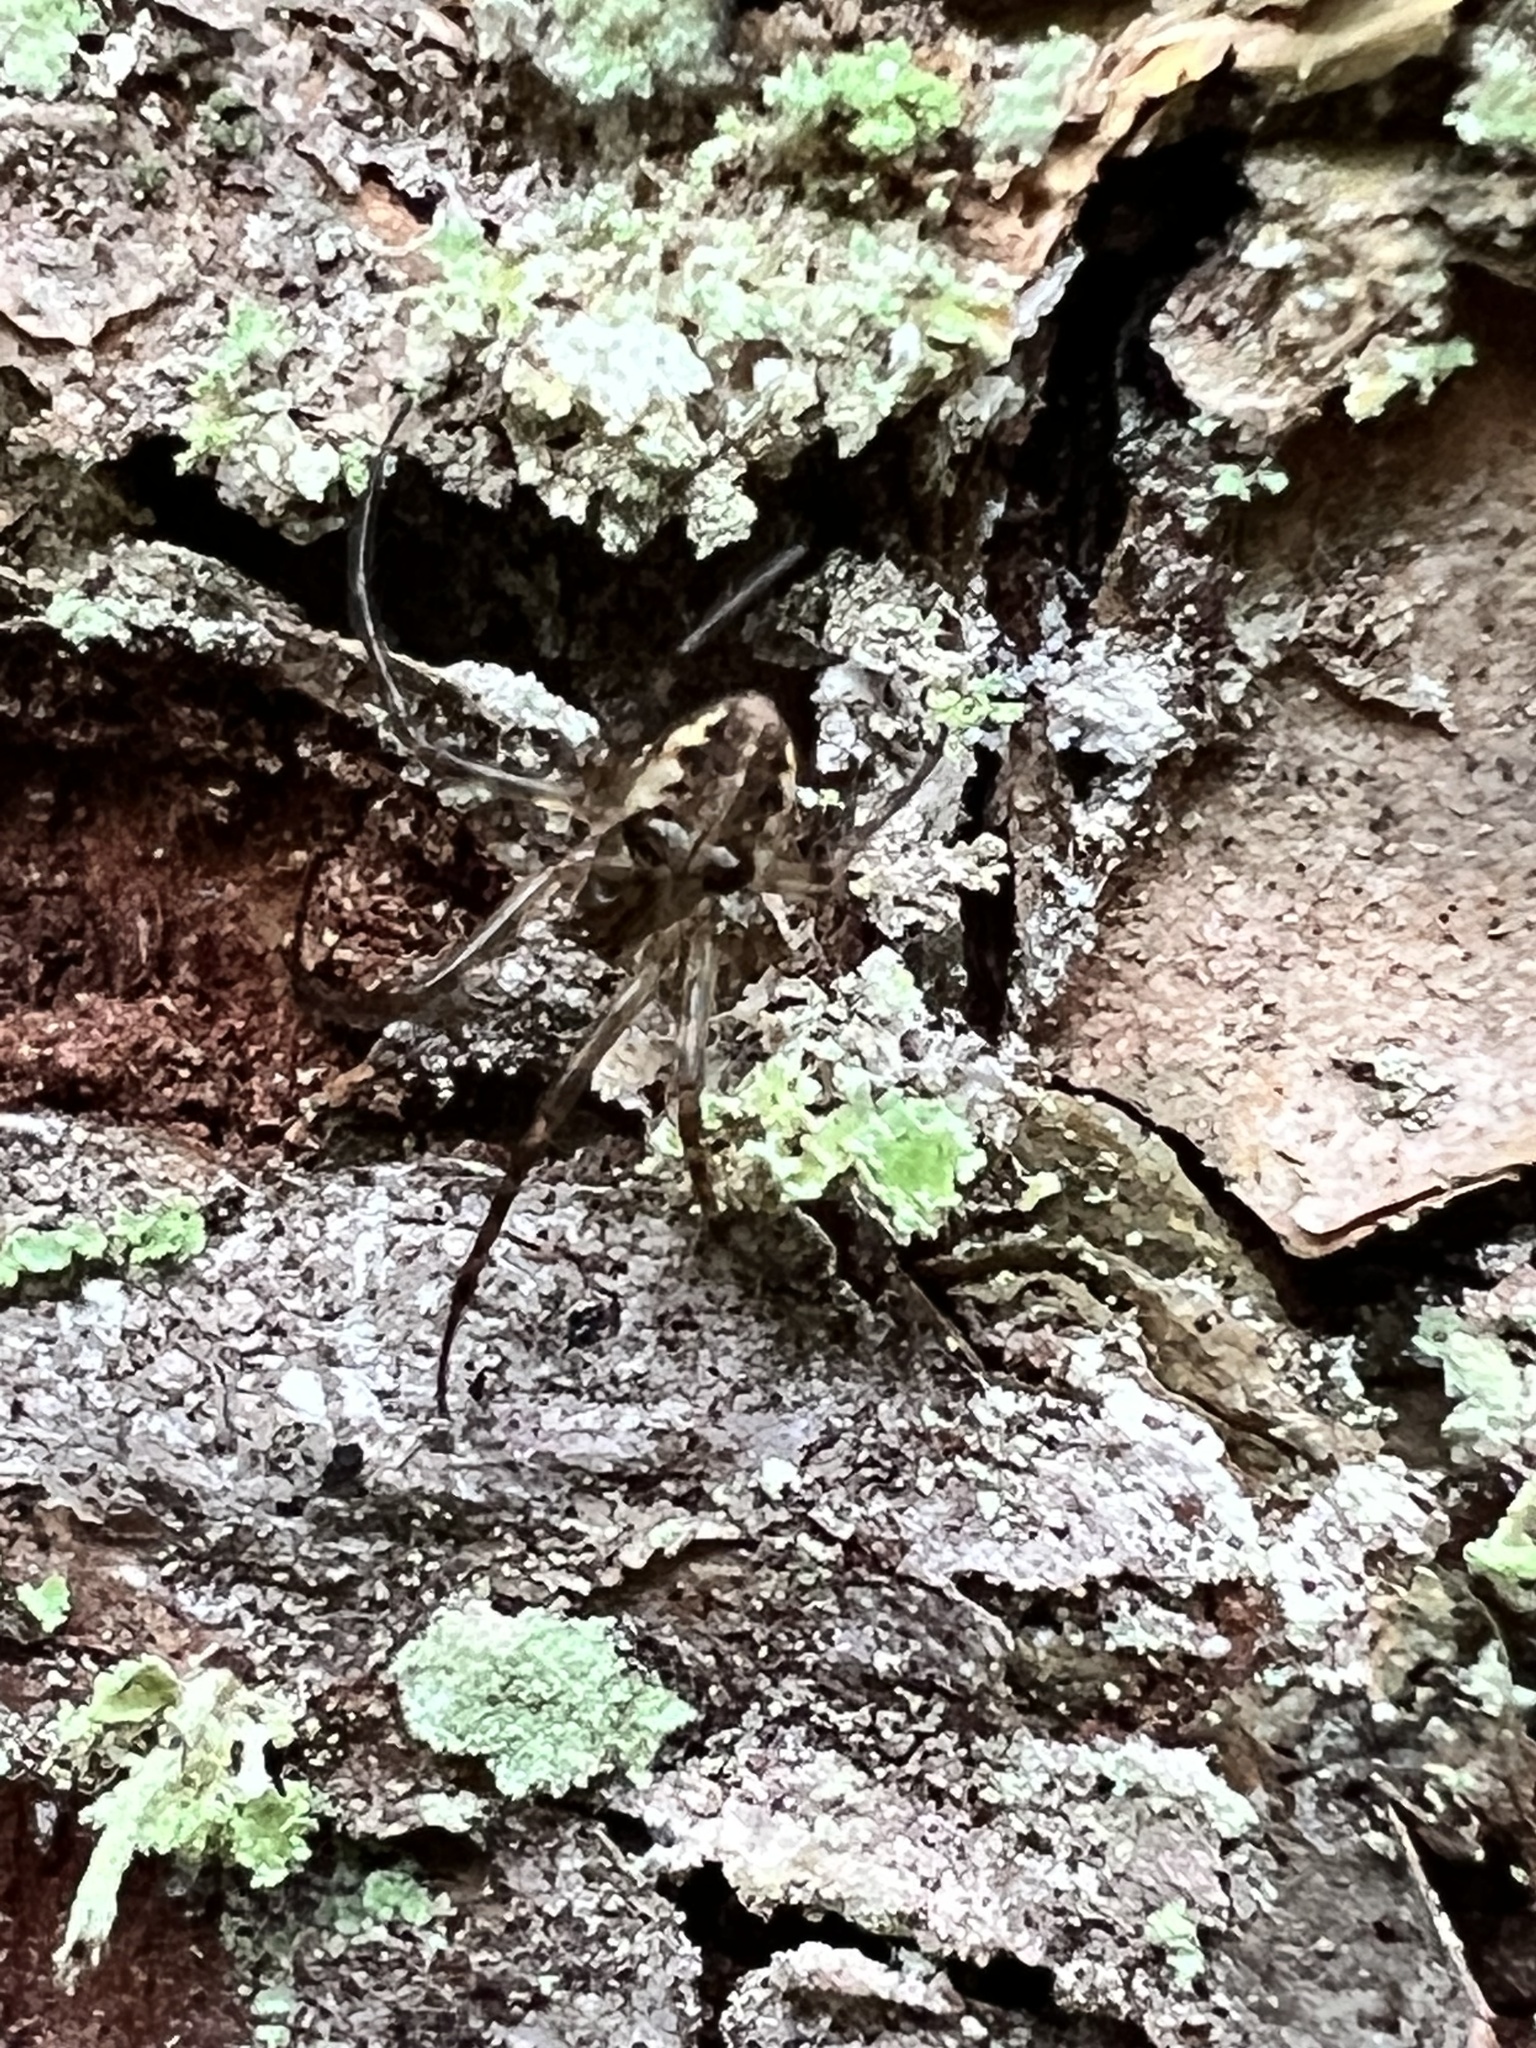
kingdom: Animalia
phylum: Arthropoda
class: Arachnida
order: Araneae
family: Tetragnathidae
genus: Metellina
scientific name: Metellina curtisi
